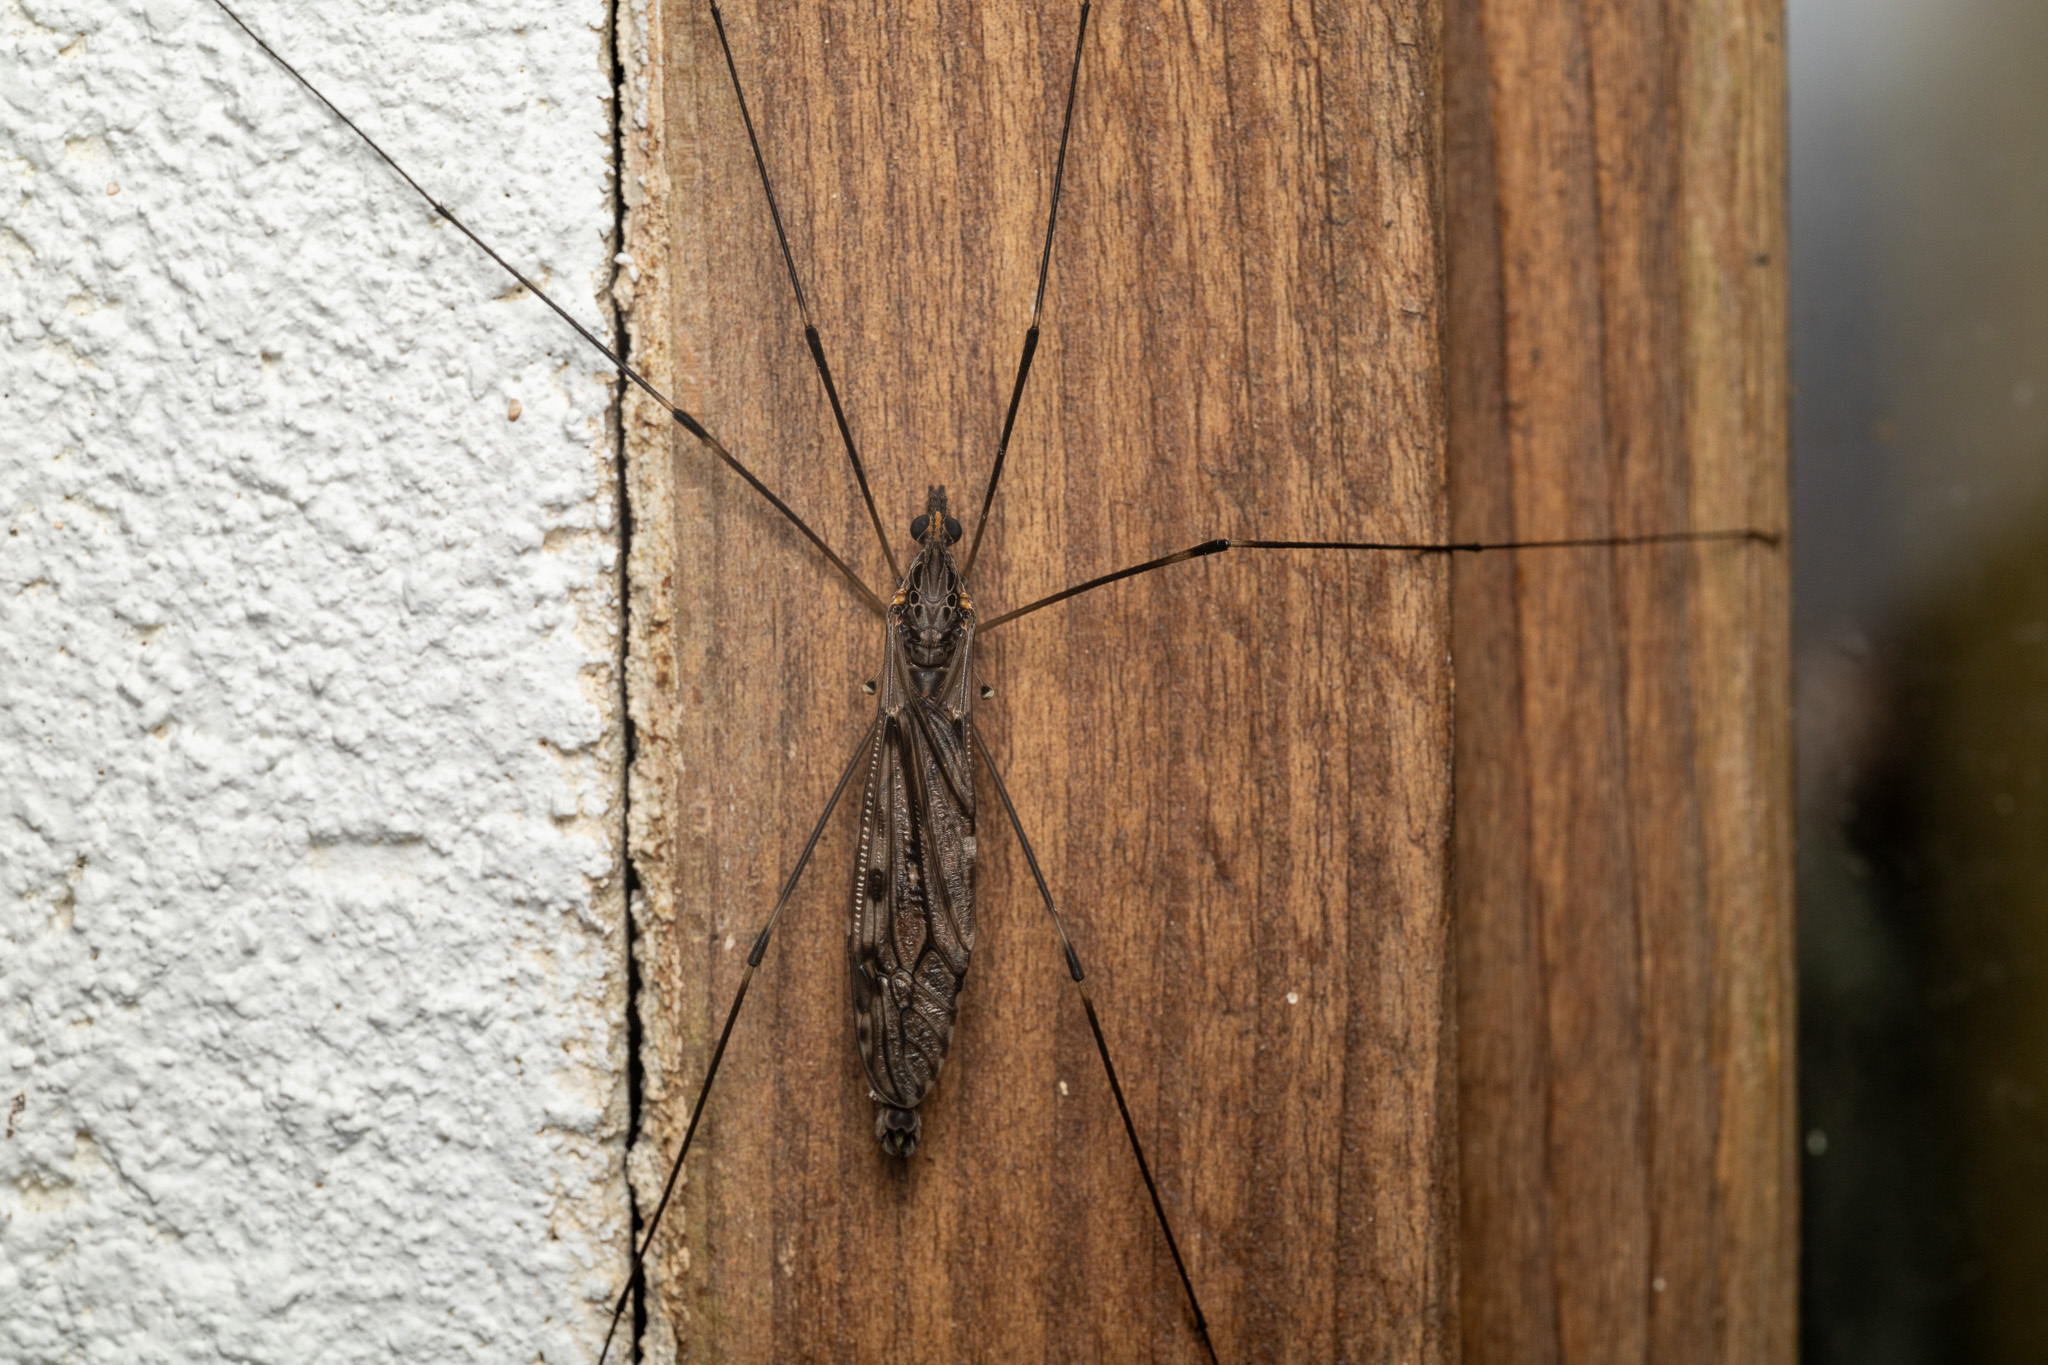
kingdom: Animalia
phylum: Arthropoda
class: Insecta
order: Diptera
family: Tipulidae
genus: Tipula
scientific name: Tipula abdominalis
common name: Giant crane fly
